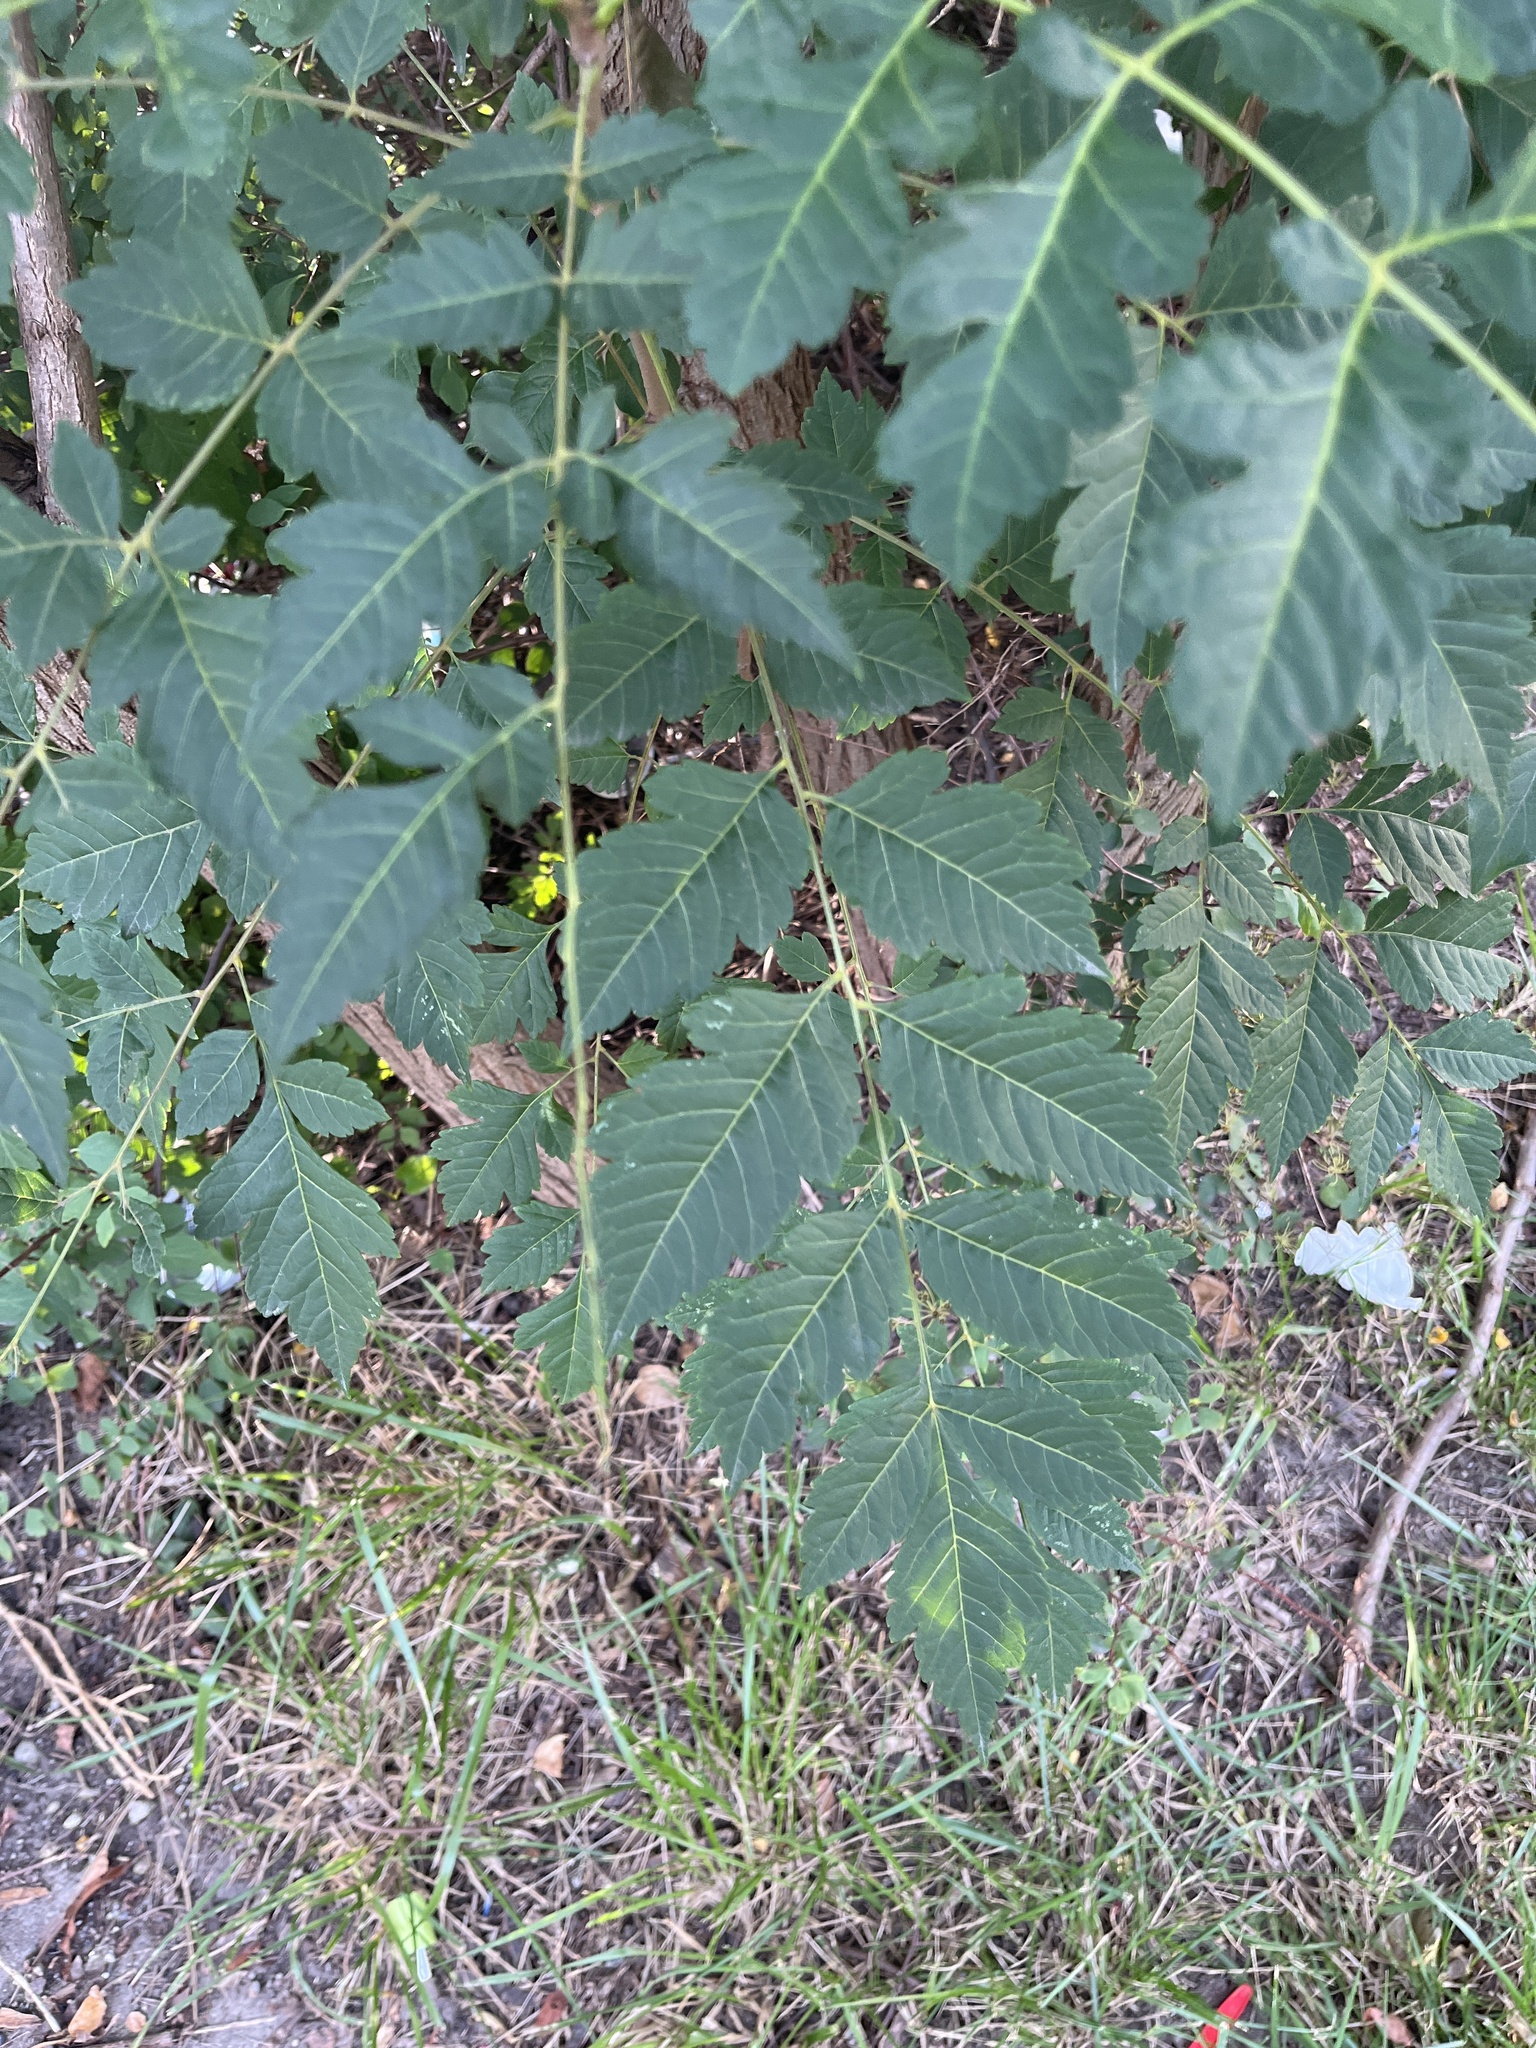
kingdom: Plantae
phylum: Tracheophyta
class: Magnoliopsida
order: Sapindales
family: Sapindaceae
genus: Koelreuteria
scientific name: Koelreuteria paniculata
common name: Pride-of-india
